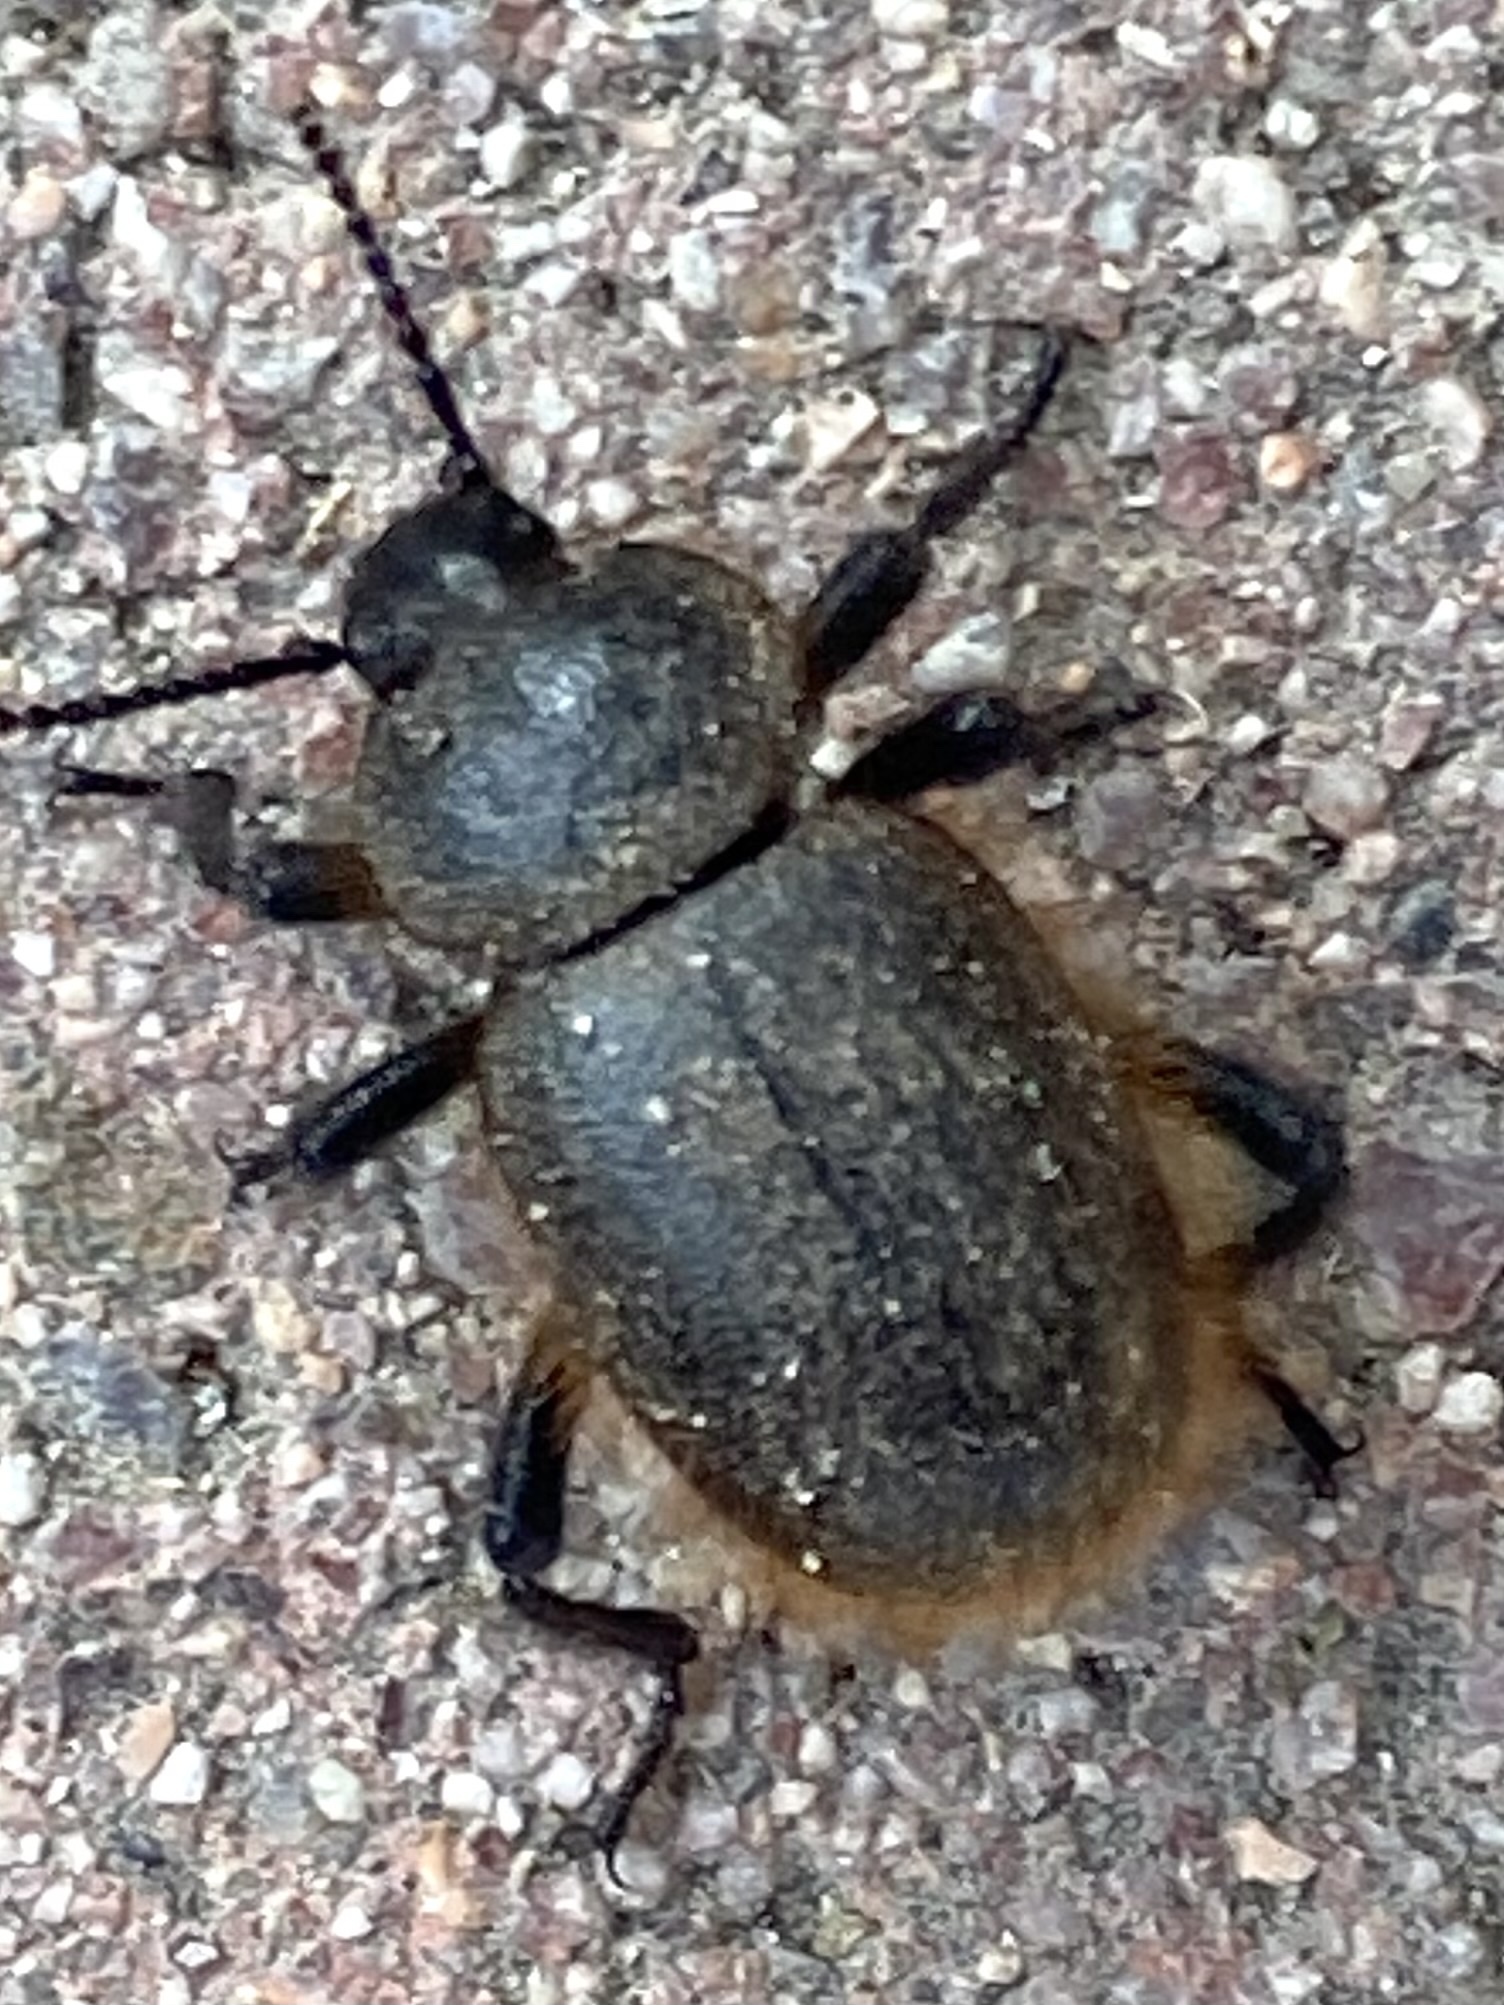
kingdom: Animalia
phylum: Arthropoda
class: Insecta
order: Coleoptera
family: Tenebrionidae
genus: Eleodes
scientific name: Eleodes osculans
